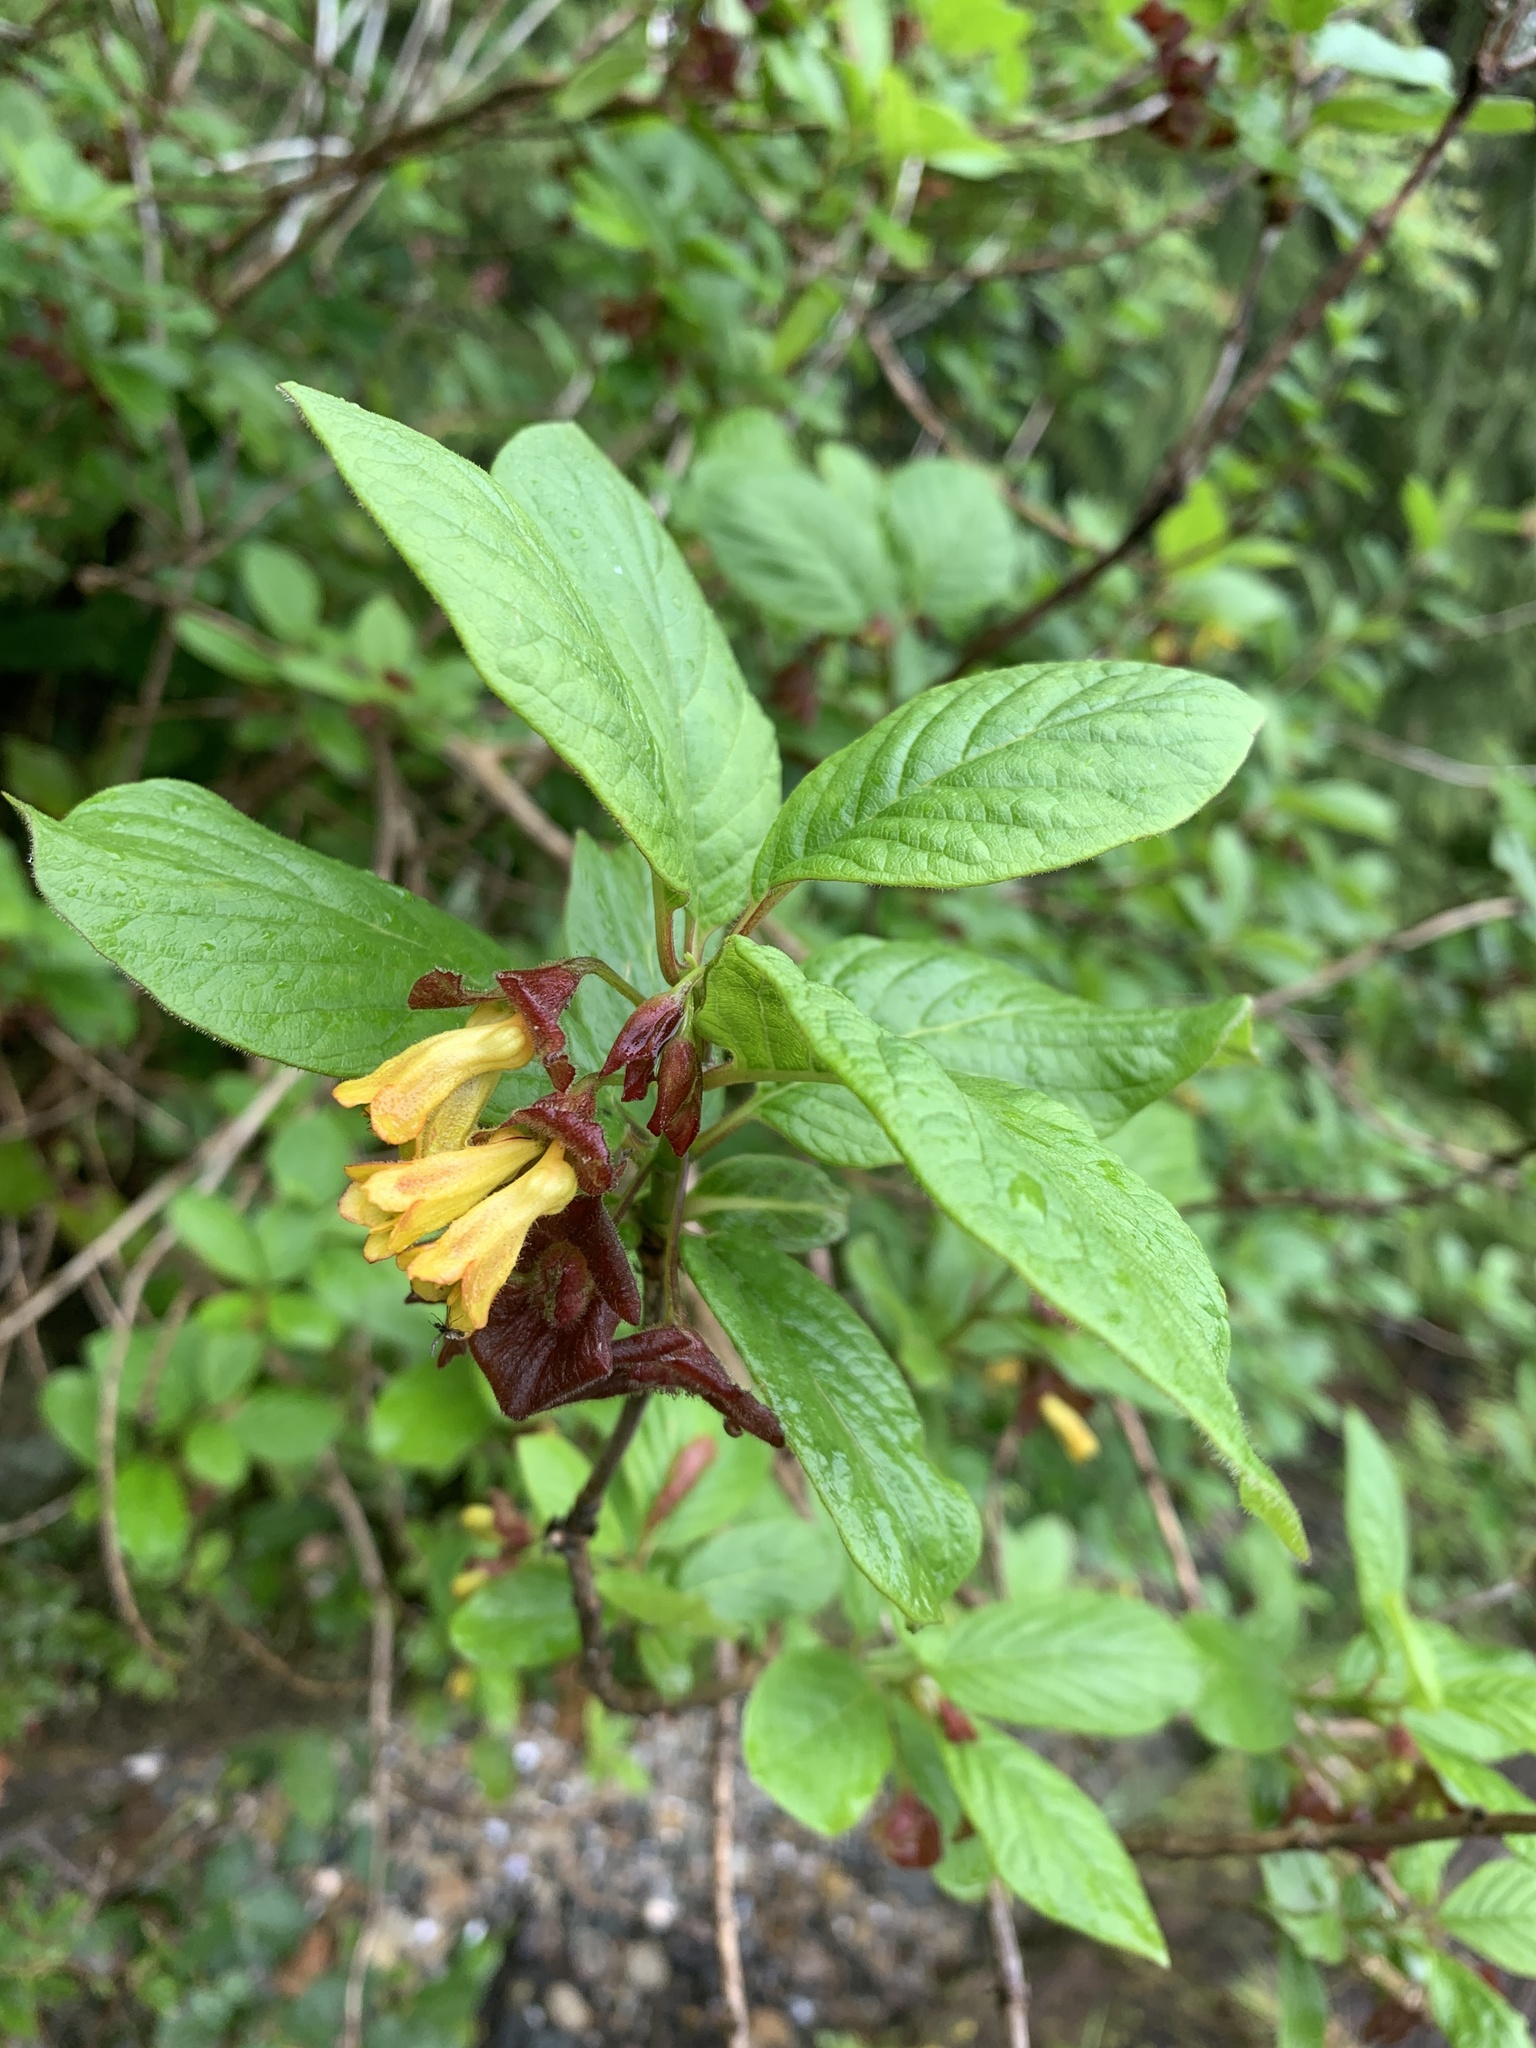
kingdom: Plantae
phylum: Tracheophyta
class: Magnoliopsida
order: Dipsacales
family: Caprifoliaceae
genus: Lonicera
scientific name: Lonicera involucrata
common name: Californian honeysuckle
